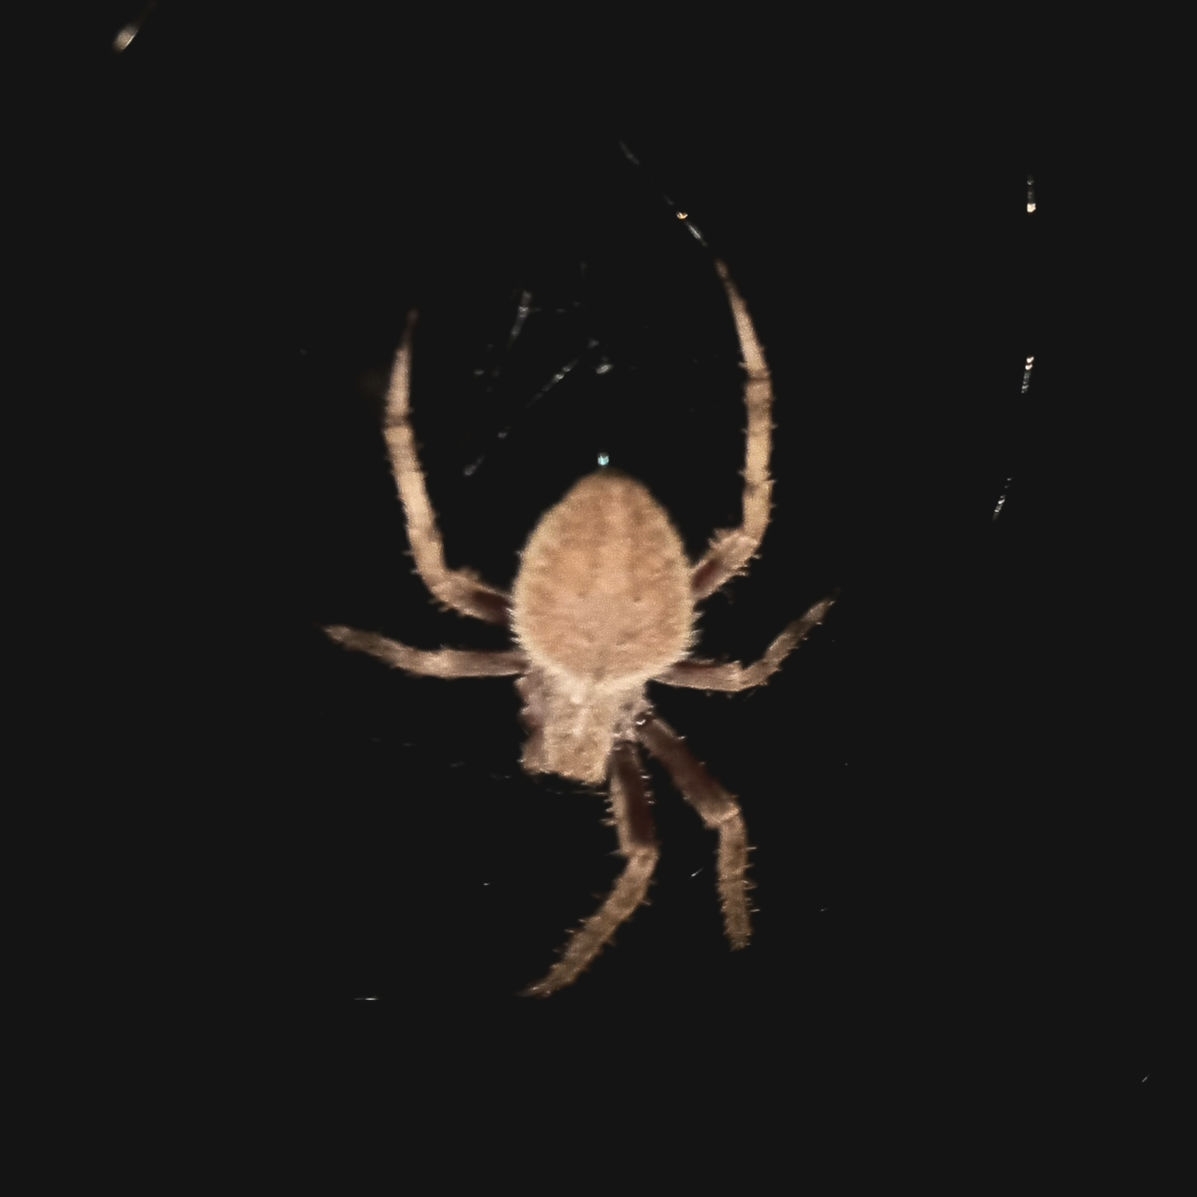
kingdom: Animalia
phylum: Arthropoda
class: Arachnida
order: Araneae
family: Araneidae
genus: Neoscona
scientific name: Neoscona crucifera
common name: Spotted orbweaver
